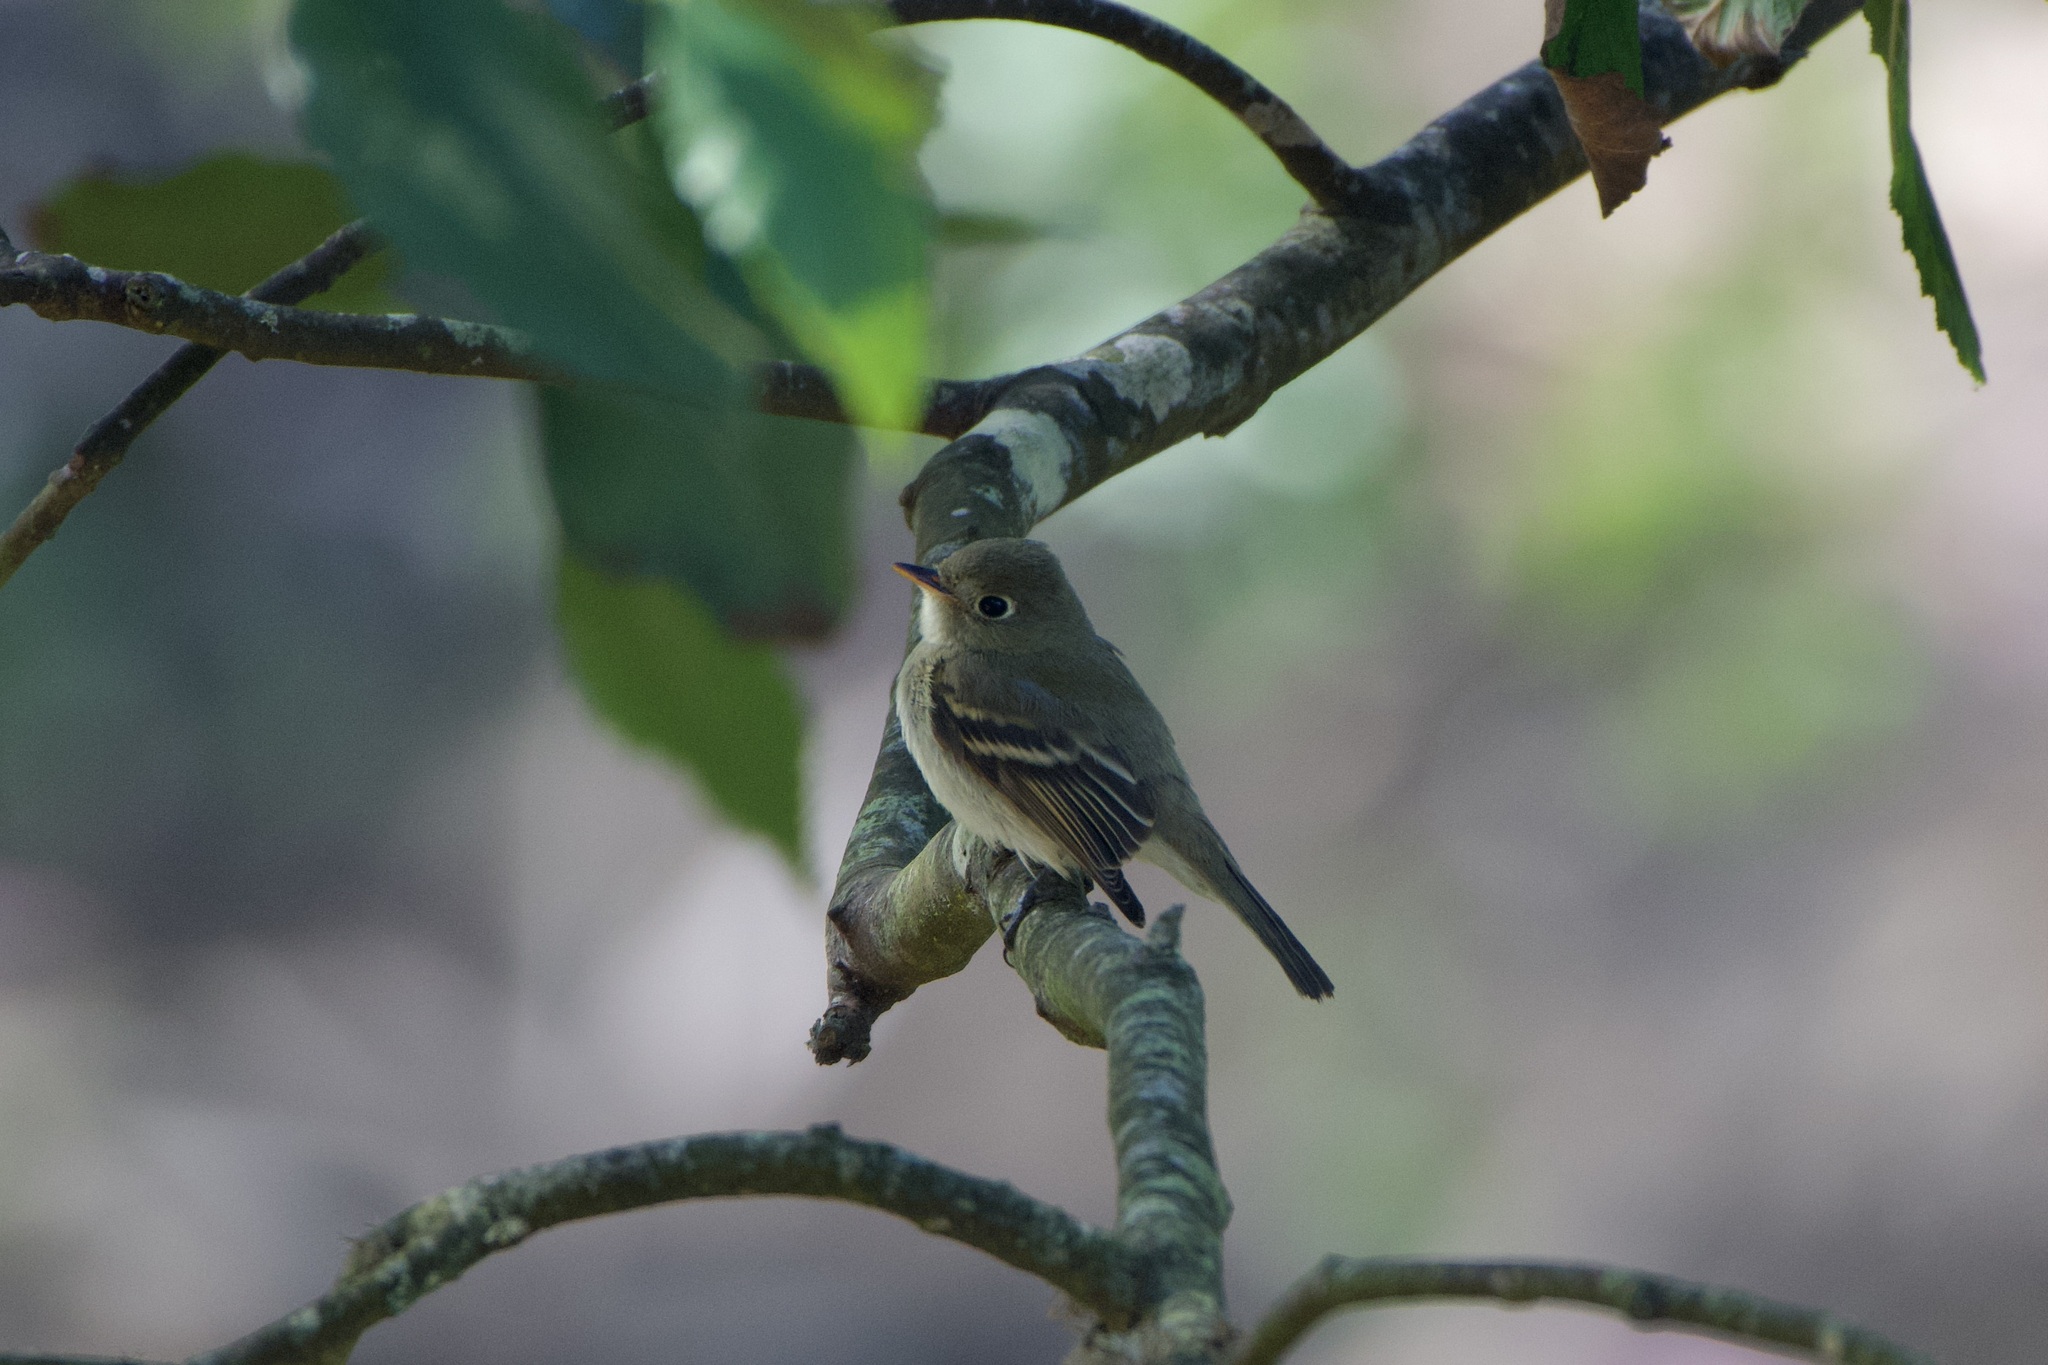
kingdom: Animalia
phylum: Chordata
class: Aves
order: Passeriformes
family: Tyrannidae
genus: Empidonax
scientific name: Empidonax difficilis
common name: Pacific-slope flycatcher
